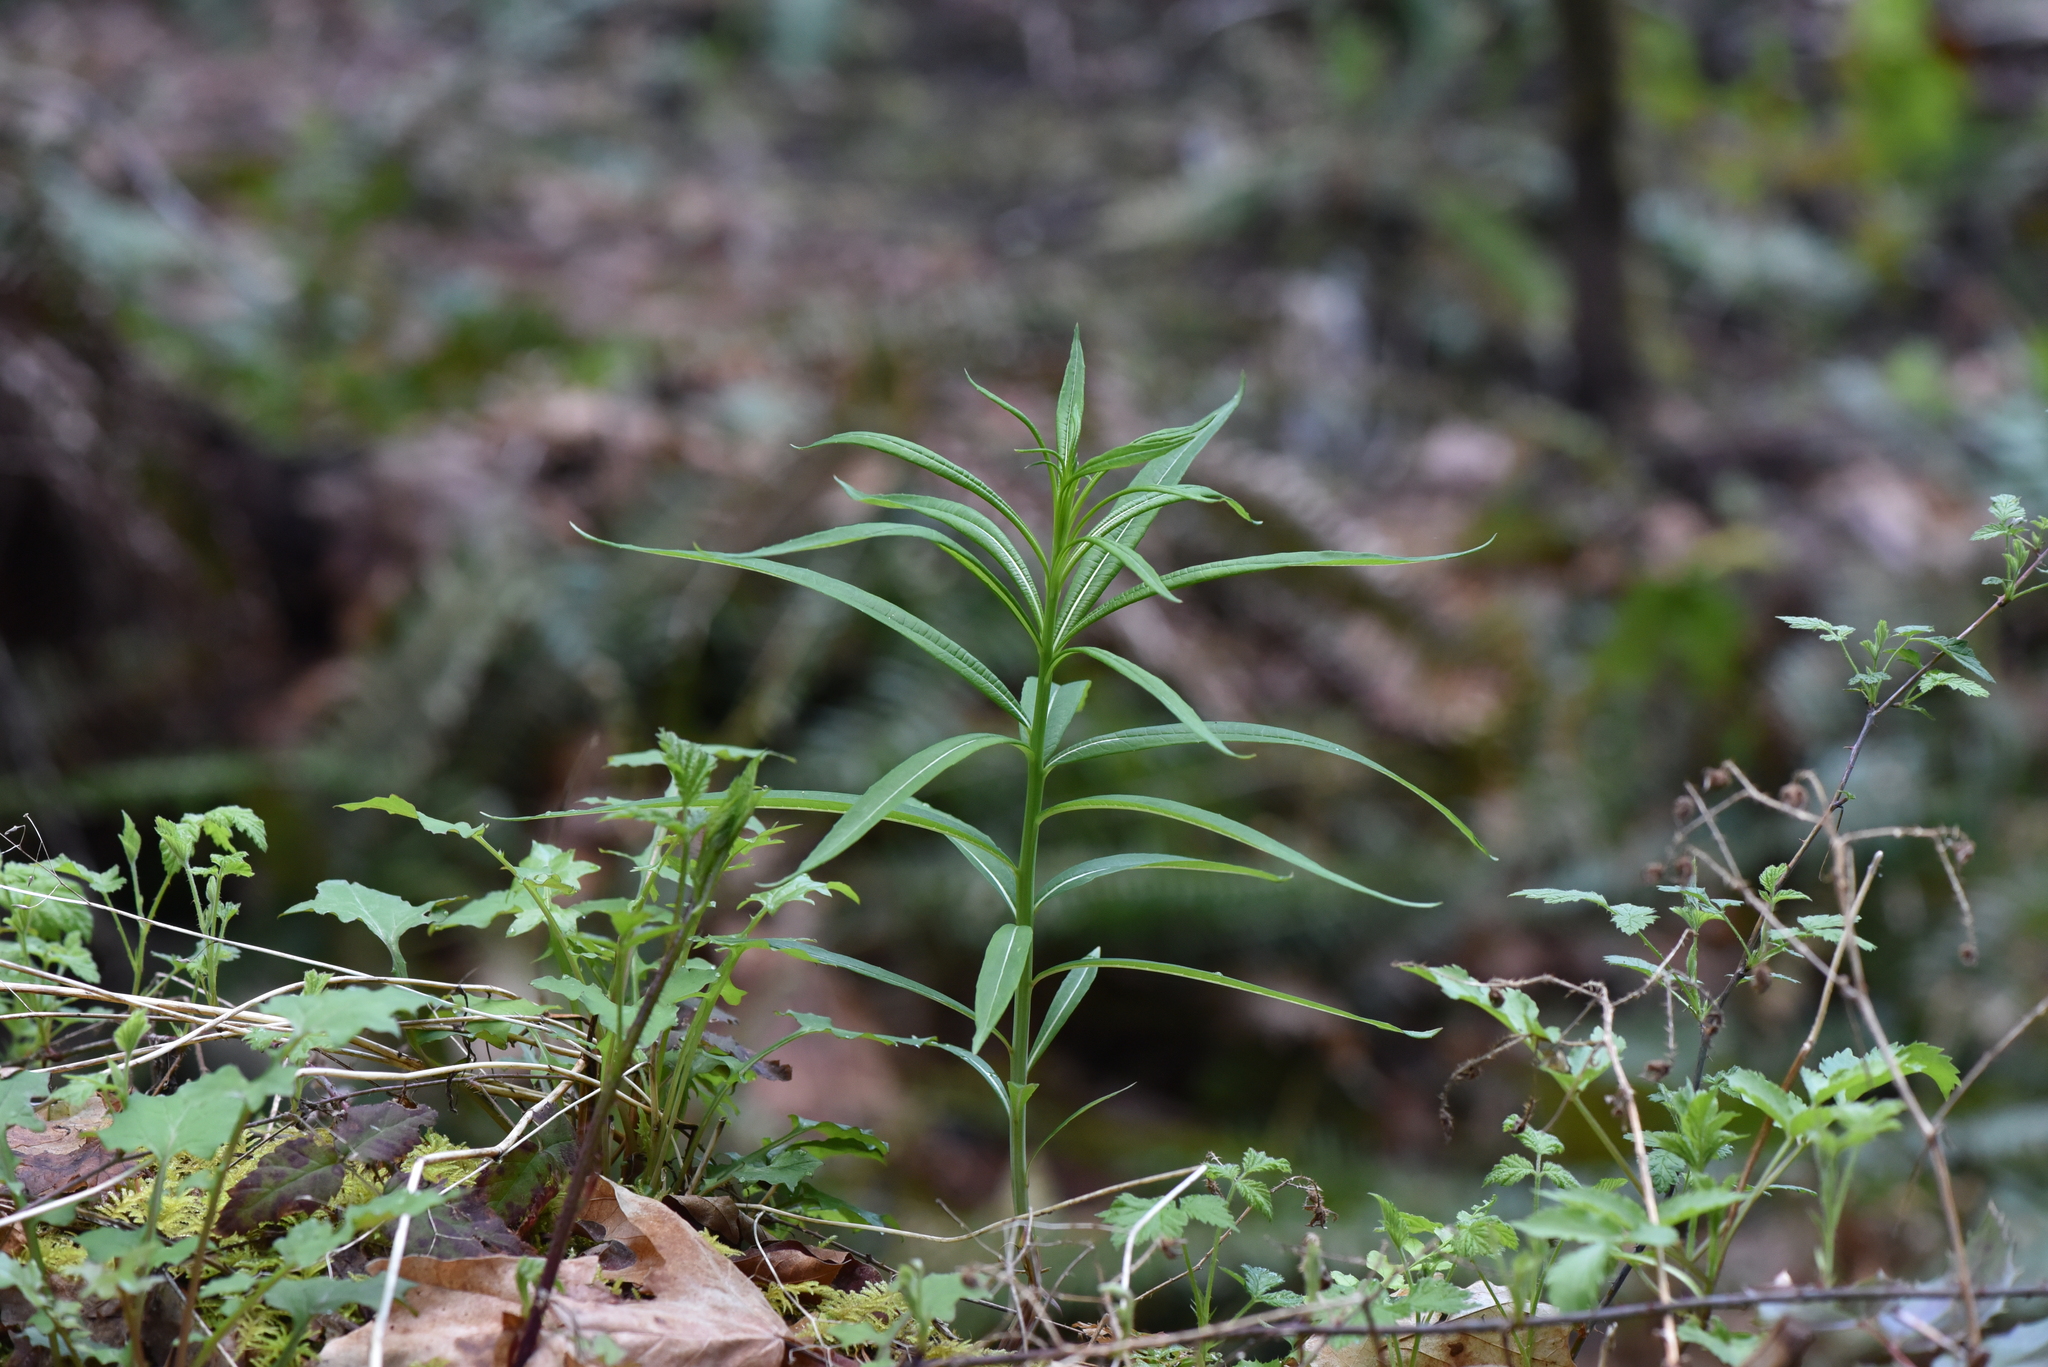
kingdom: Plantae
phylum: Tracheophyta
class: Magnoliopsida
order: Myrtales
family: Onagraceae
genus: Chamaenerion
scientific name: Chamaenerion angustifolium
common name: Fireweed
